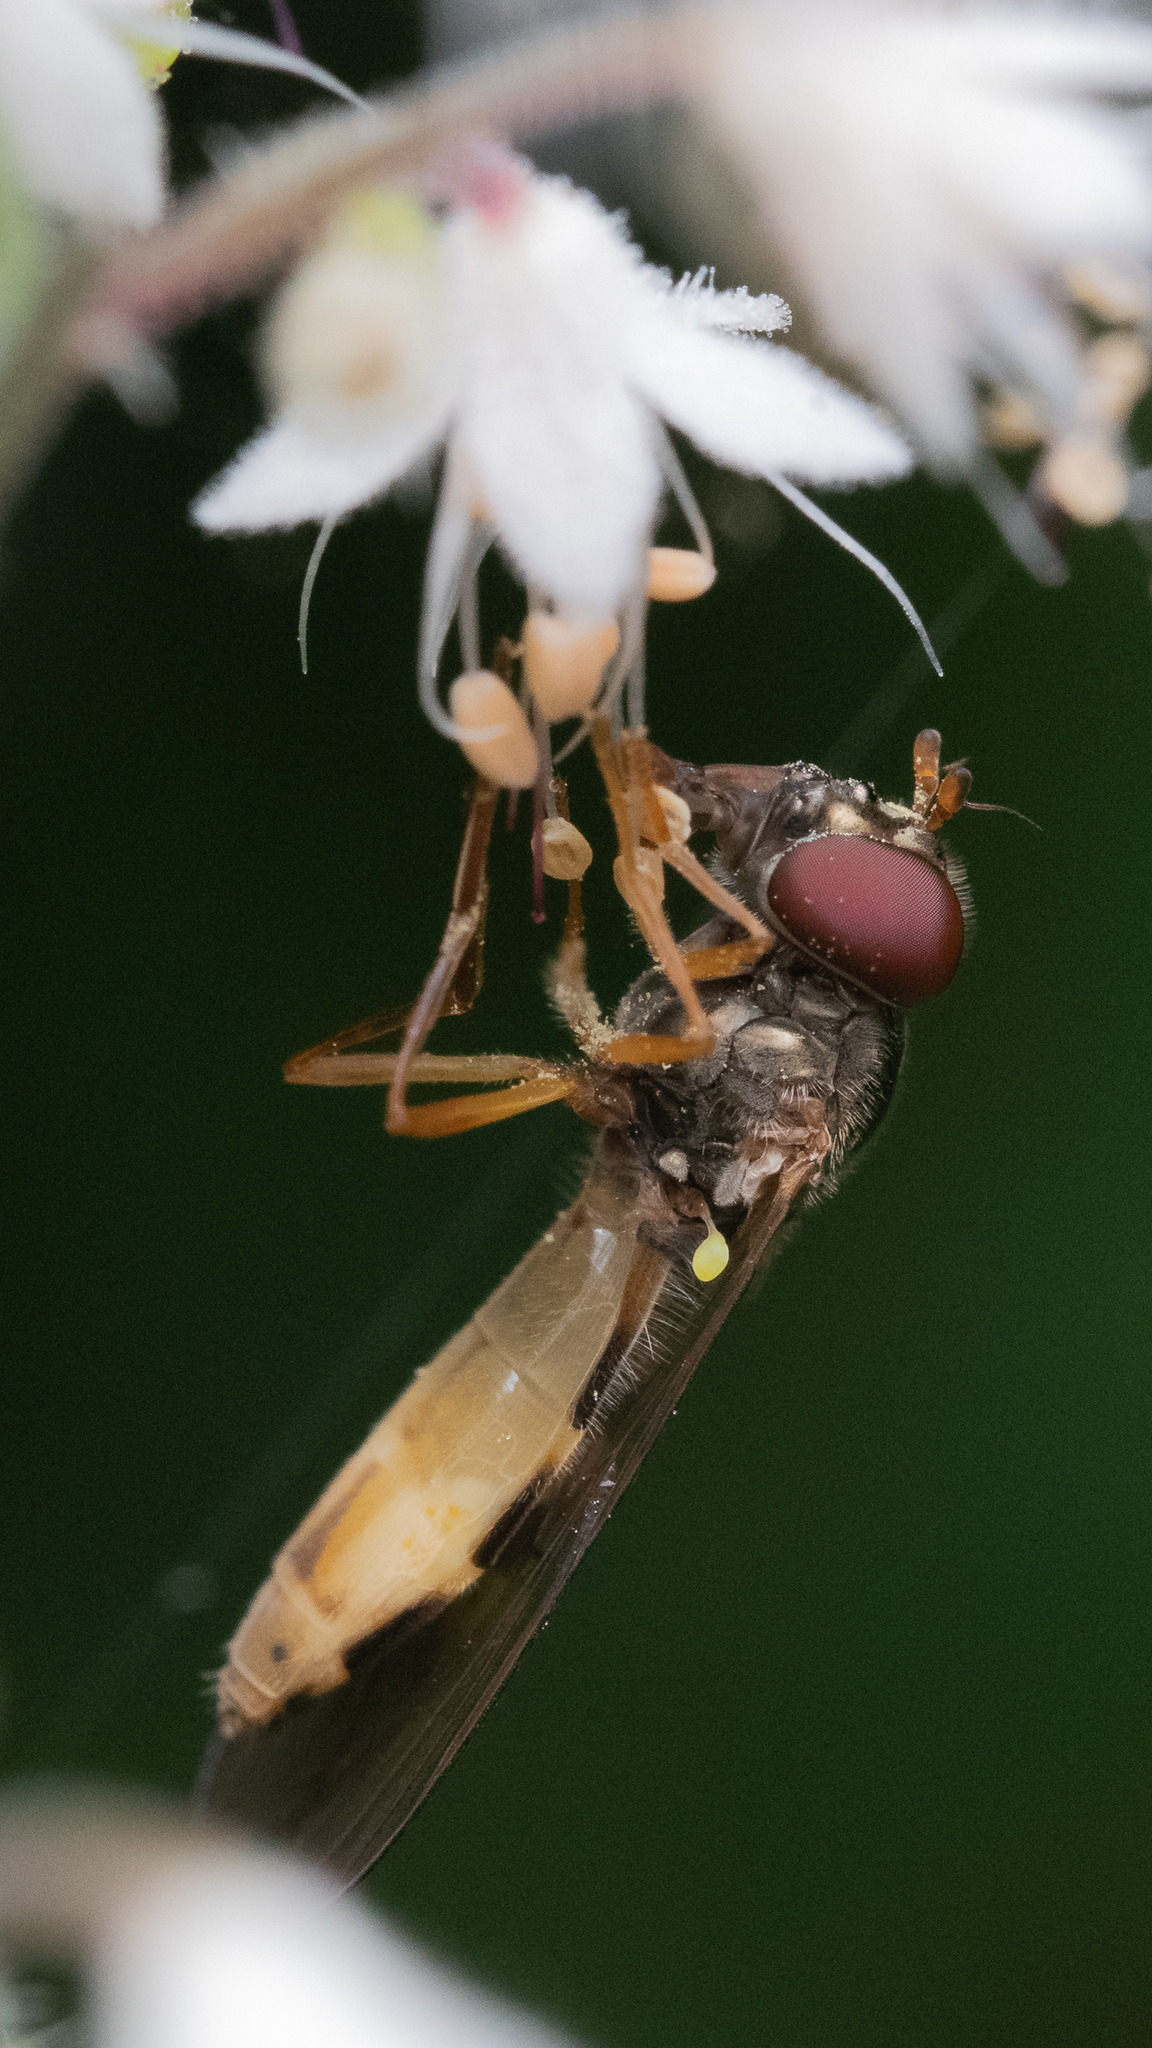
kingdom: Animalia
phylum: Arthropoda
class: Insecta
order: Diptera
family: Syrphidae
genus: Melanostoma
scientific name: Melanostoma mellina
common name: Hover fly
